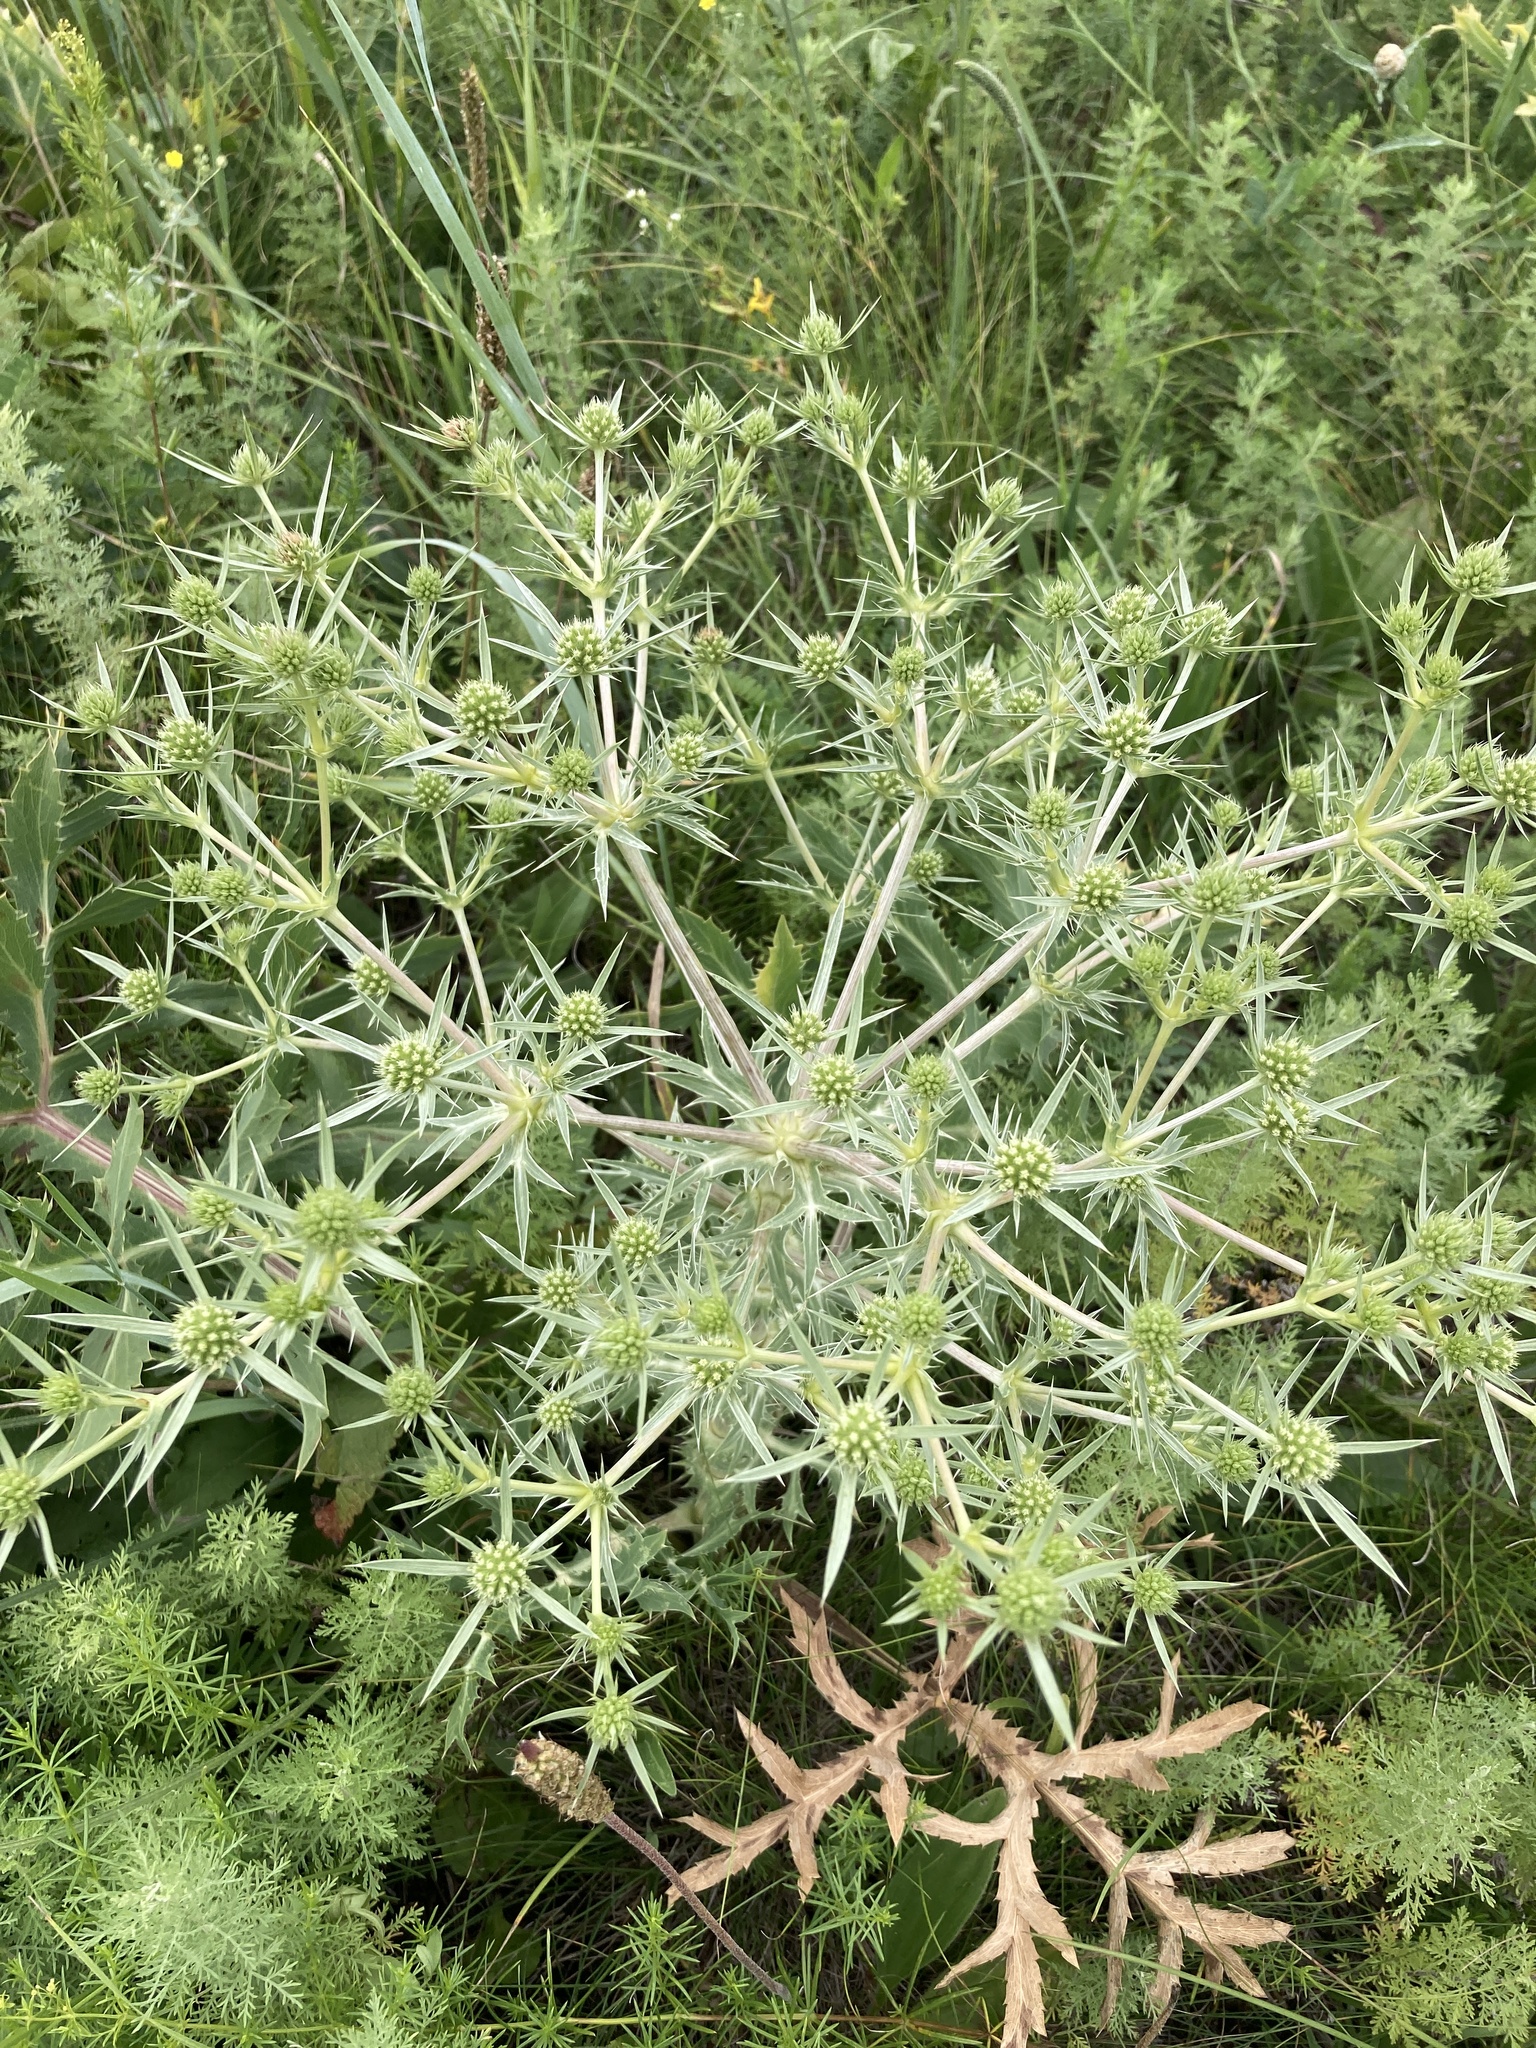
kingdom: Plantae
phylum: Tracheophyta
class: Magnoliopsida
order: Apiales
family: Apiaceae
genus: Eryngium
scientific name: Eryngium campestre
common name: Field eryngo
